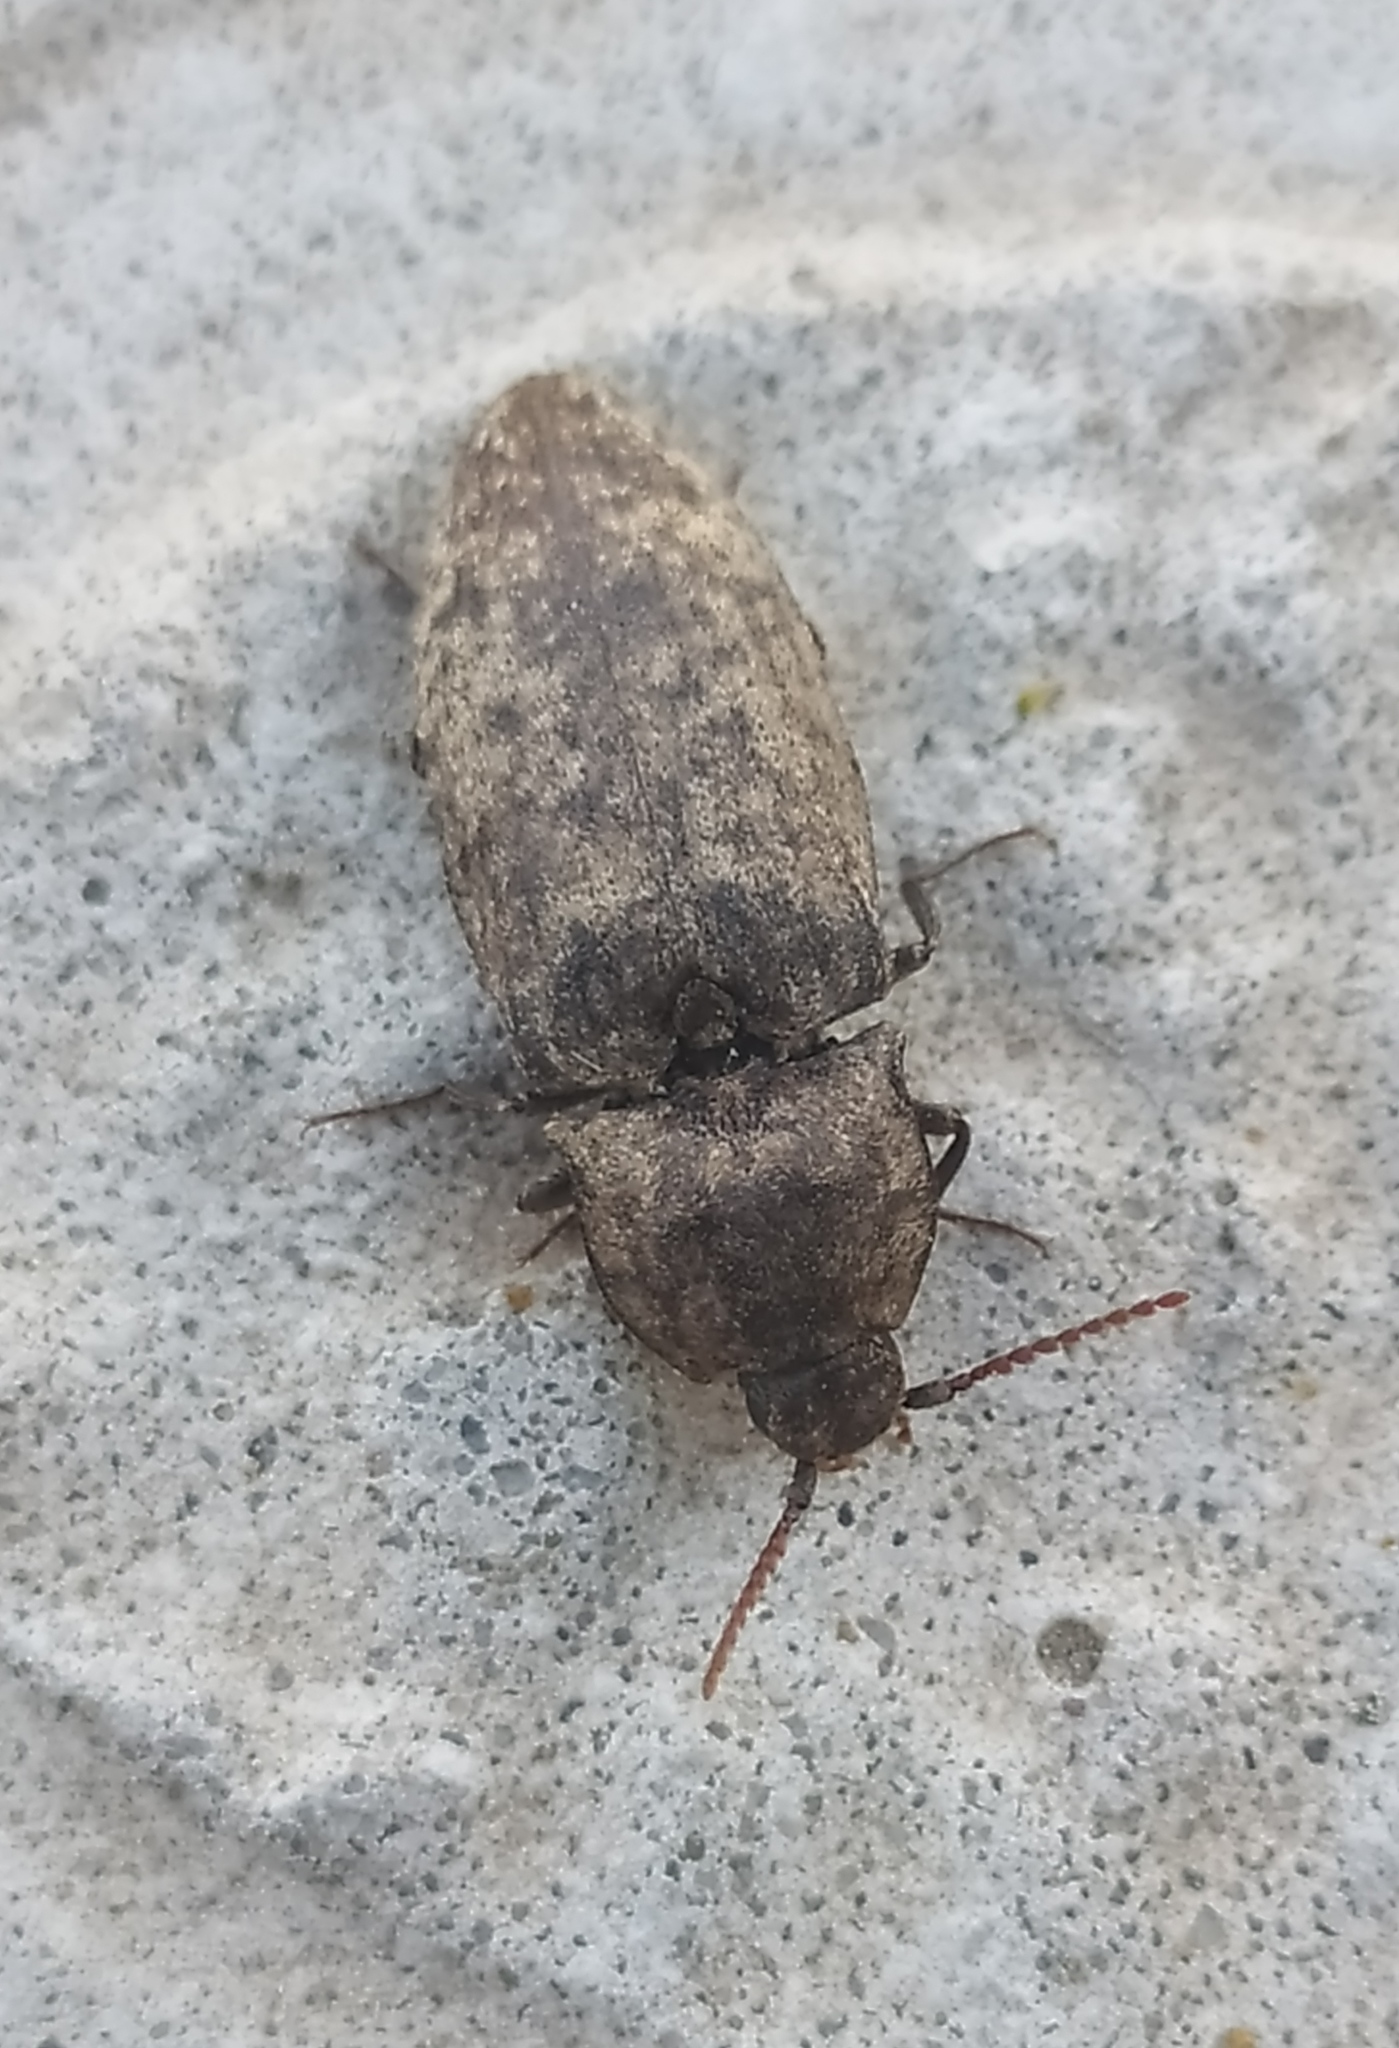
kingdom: Animalia
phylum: Arthropoda
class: Insecta
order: Coleoptera
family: Elateridae
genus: Agrypnus
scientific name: Agrypnus murinus
